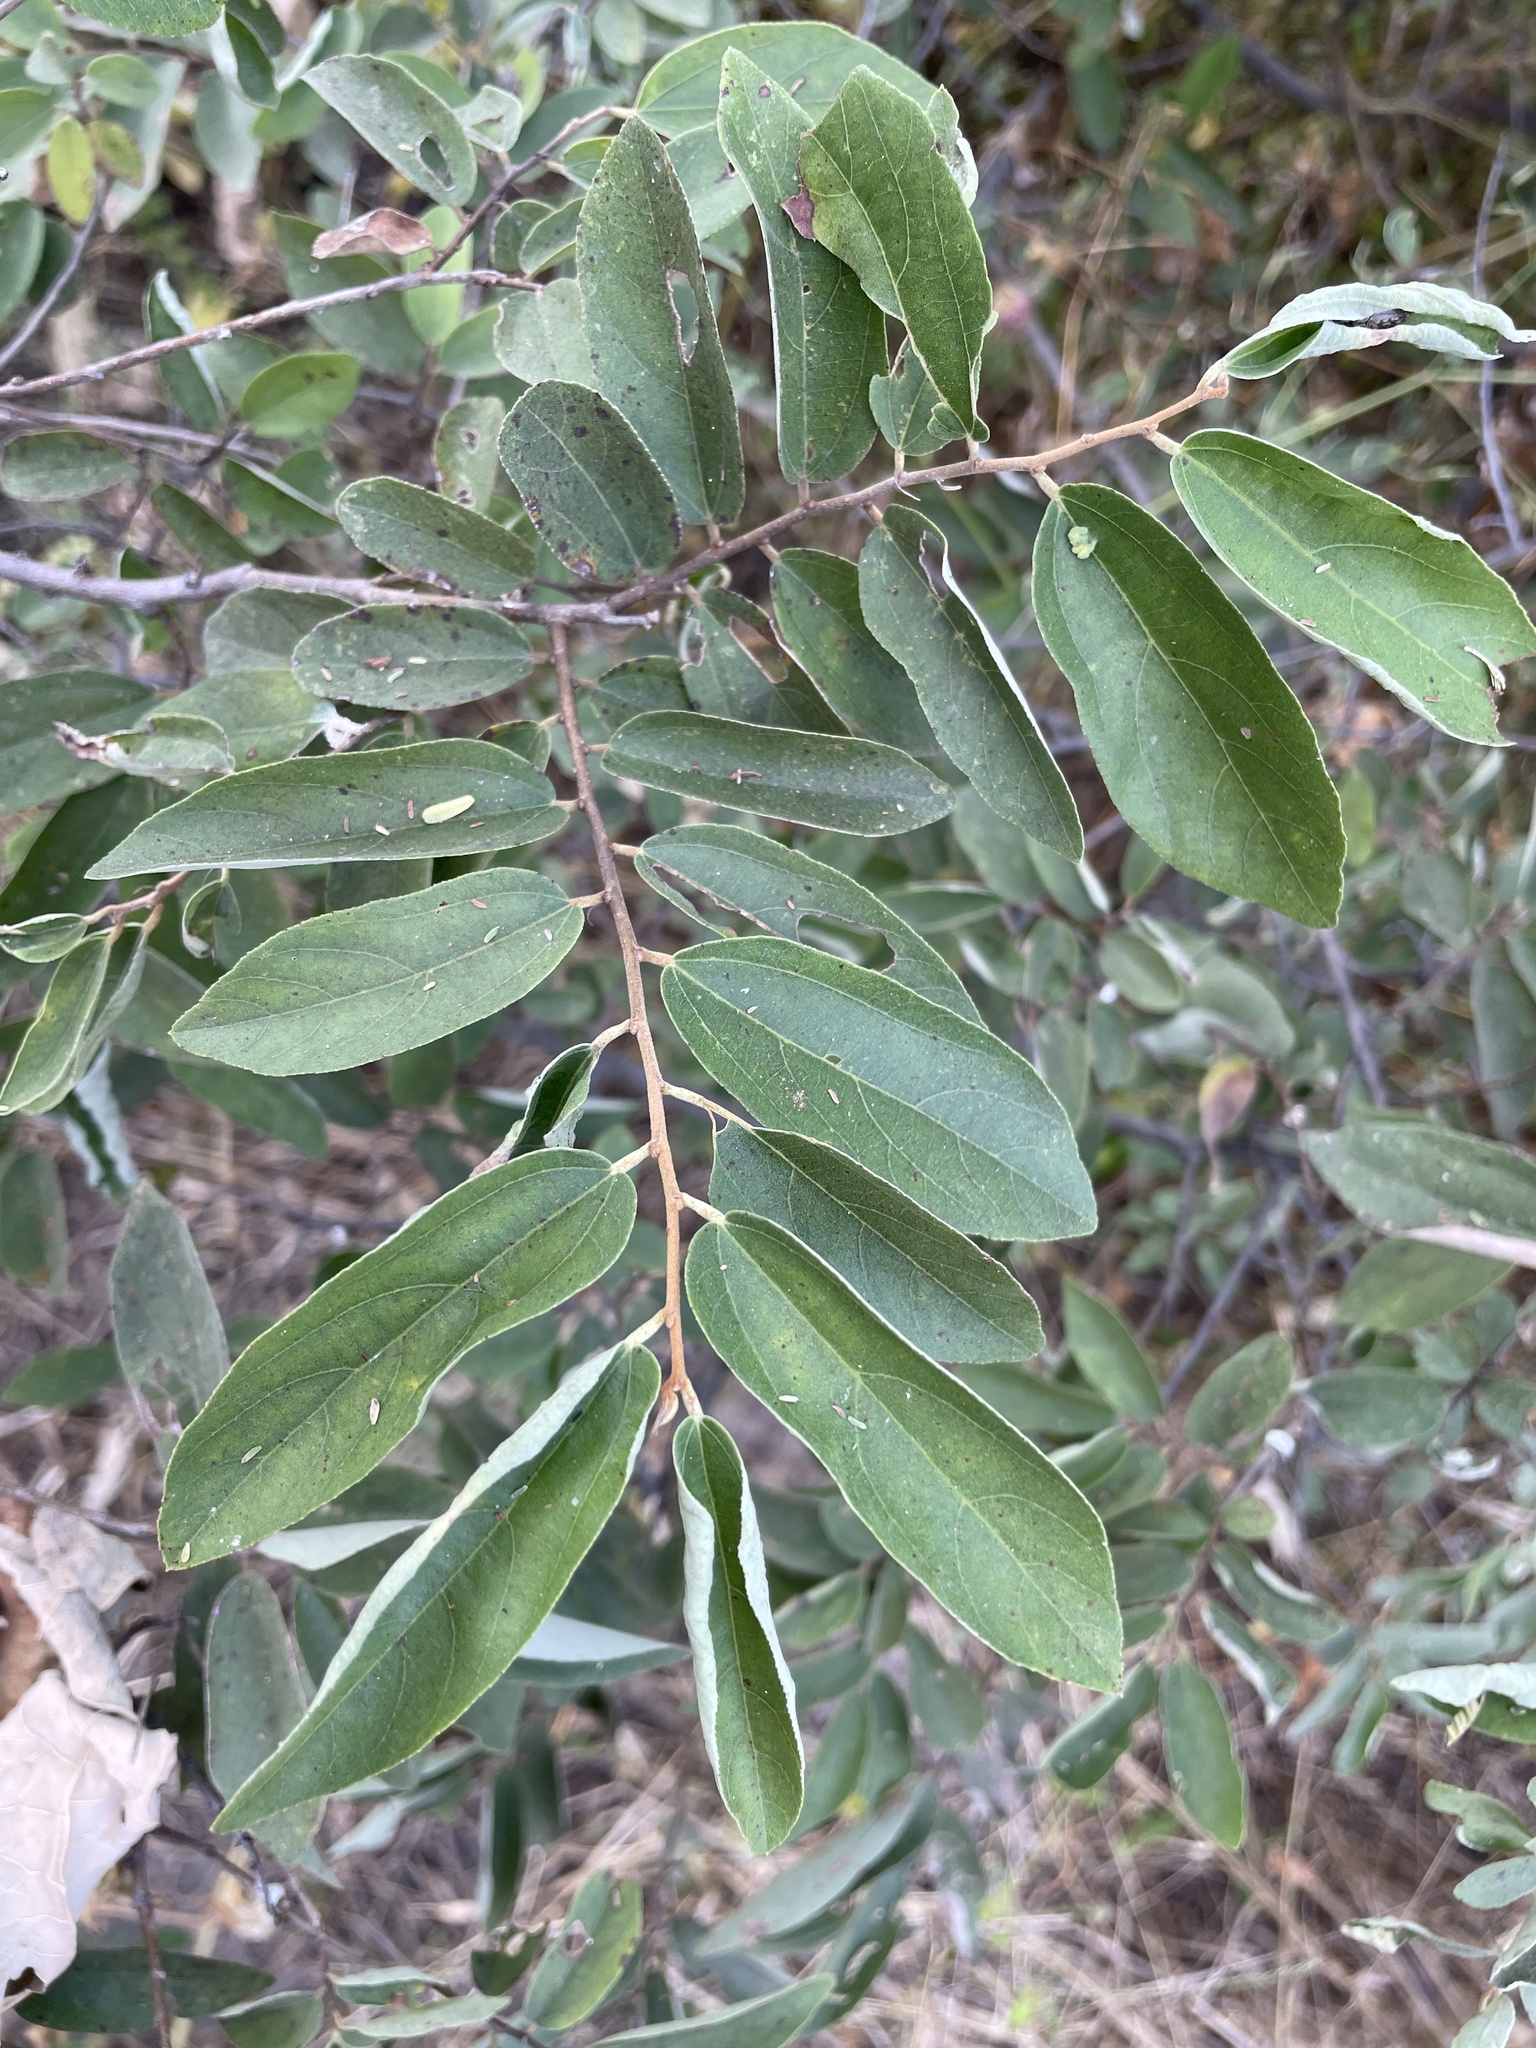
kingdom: Plantae
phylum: Tracheophyta
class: Magnoliopsida
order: Malvales
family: Malvaceae
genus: Grewia
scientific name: Grewia bicolor
